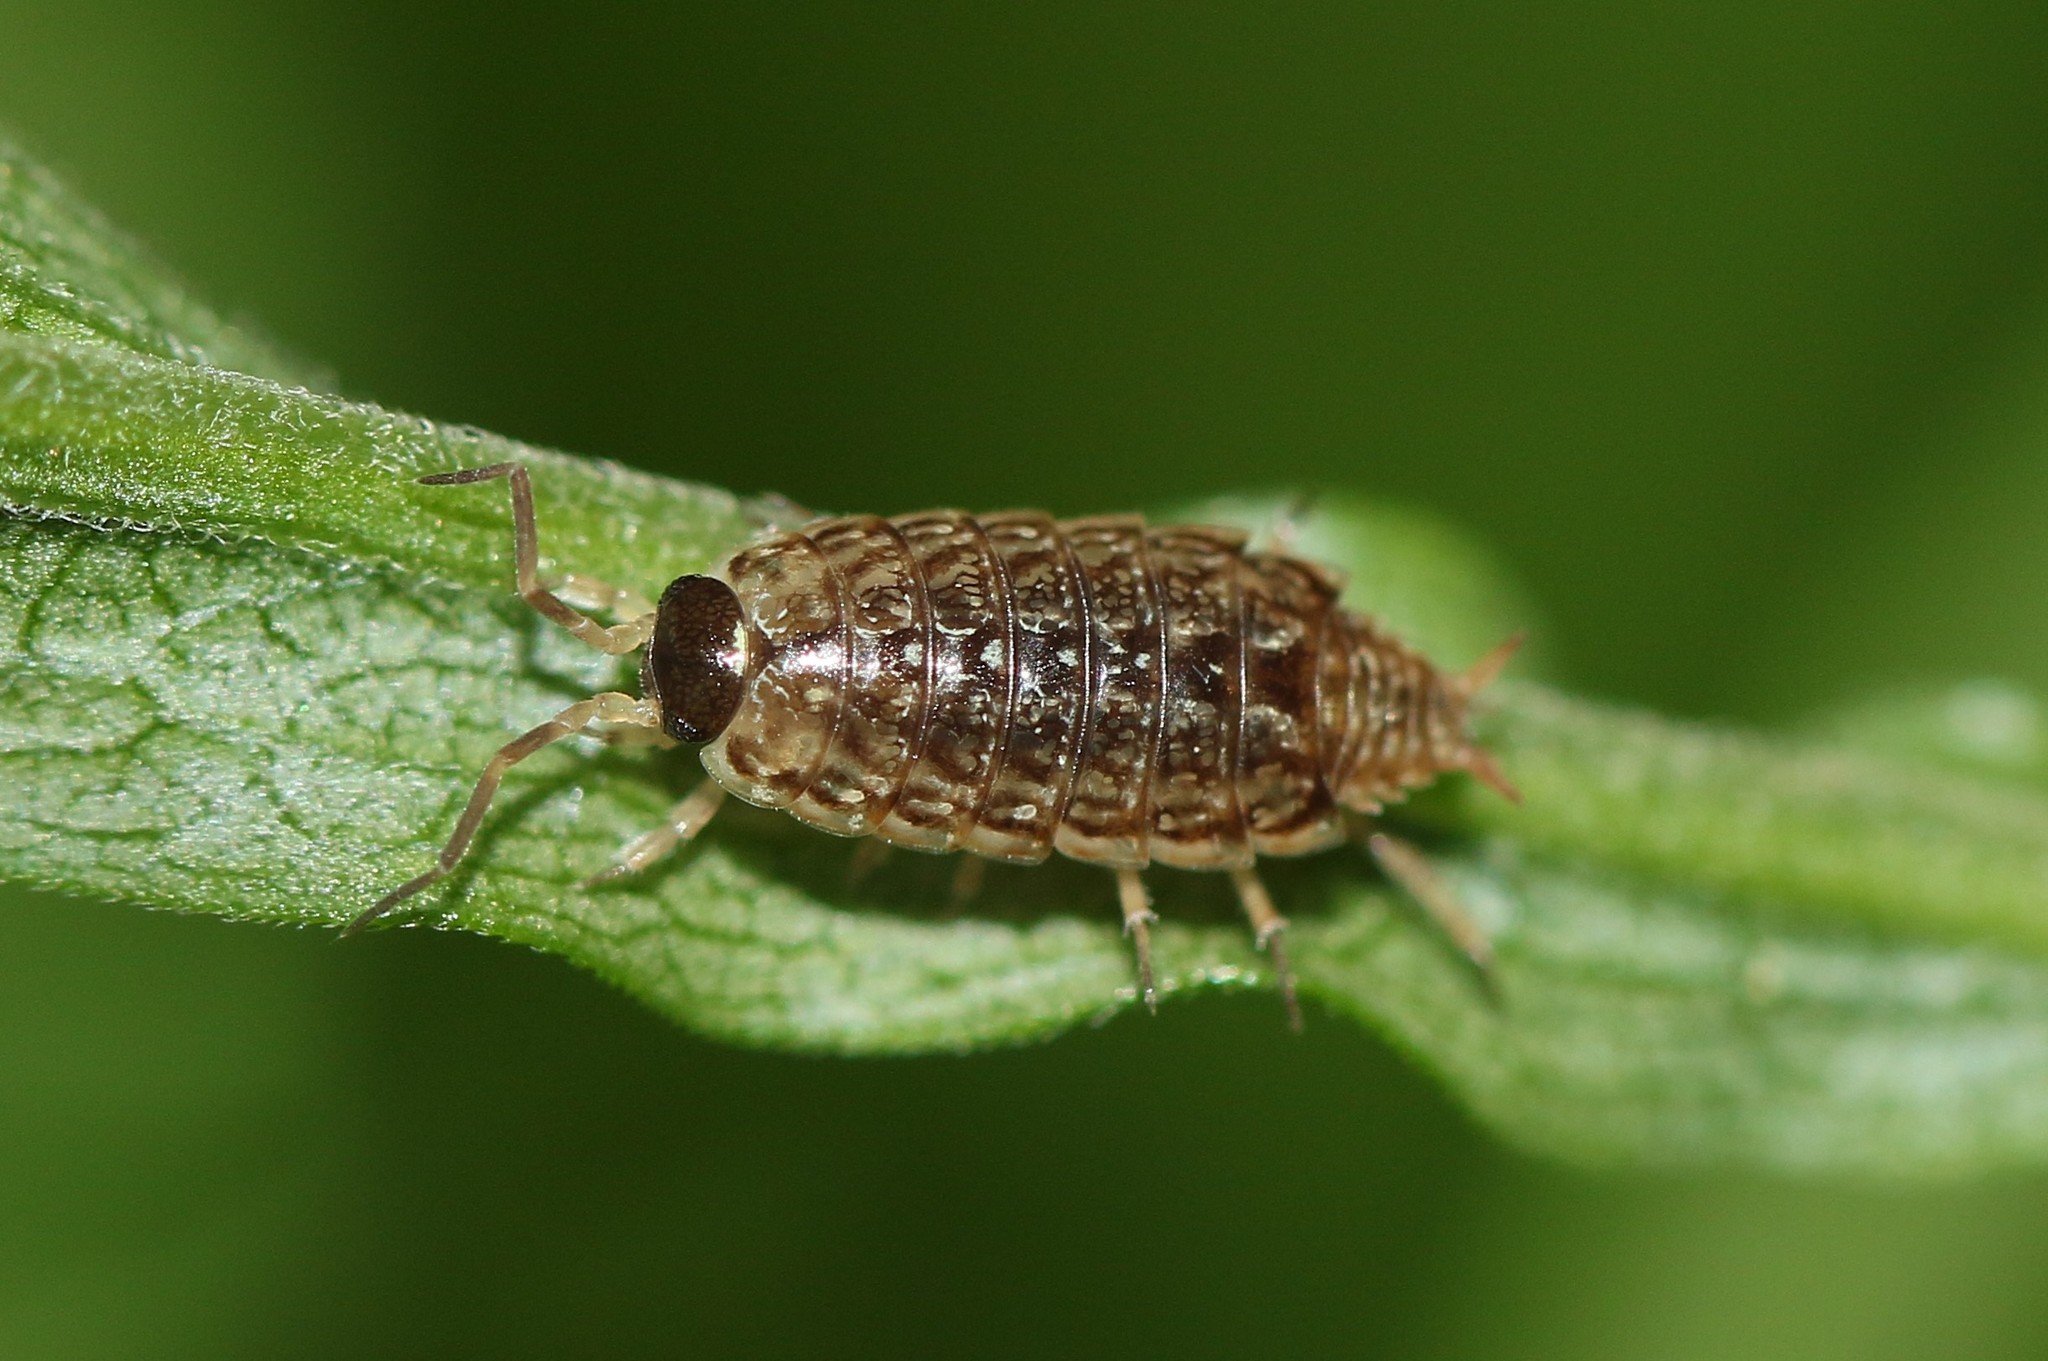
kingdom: Animalia
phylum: Arthropoda
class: Malacostraca
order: Isopoda
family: Philosciidae
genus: Philoscia
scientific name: Philoscia muscorum
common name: Common striped woodlouse
